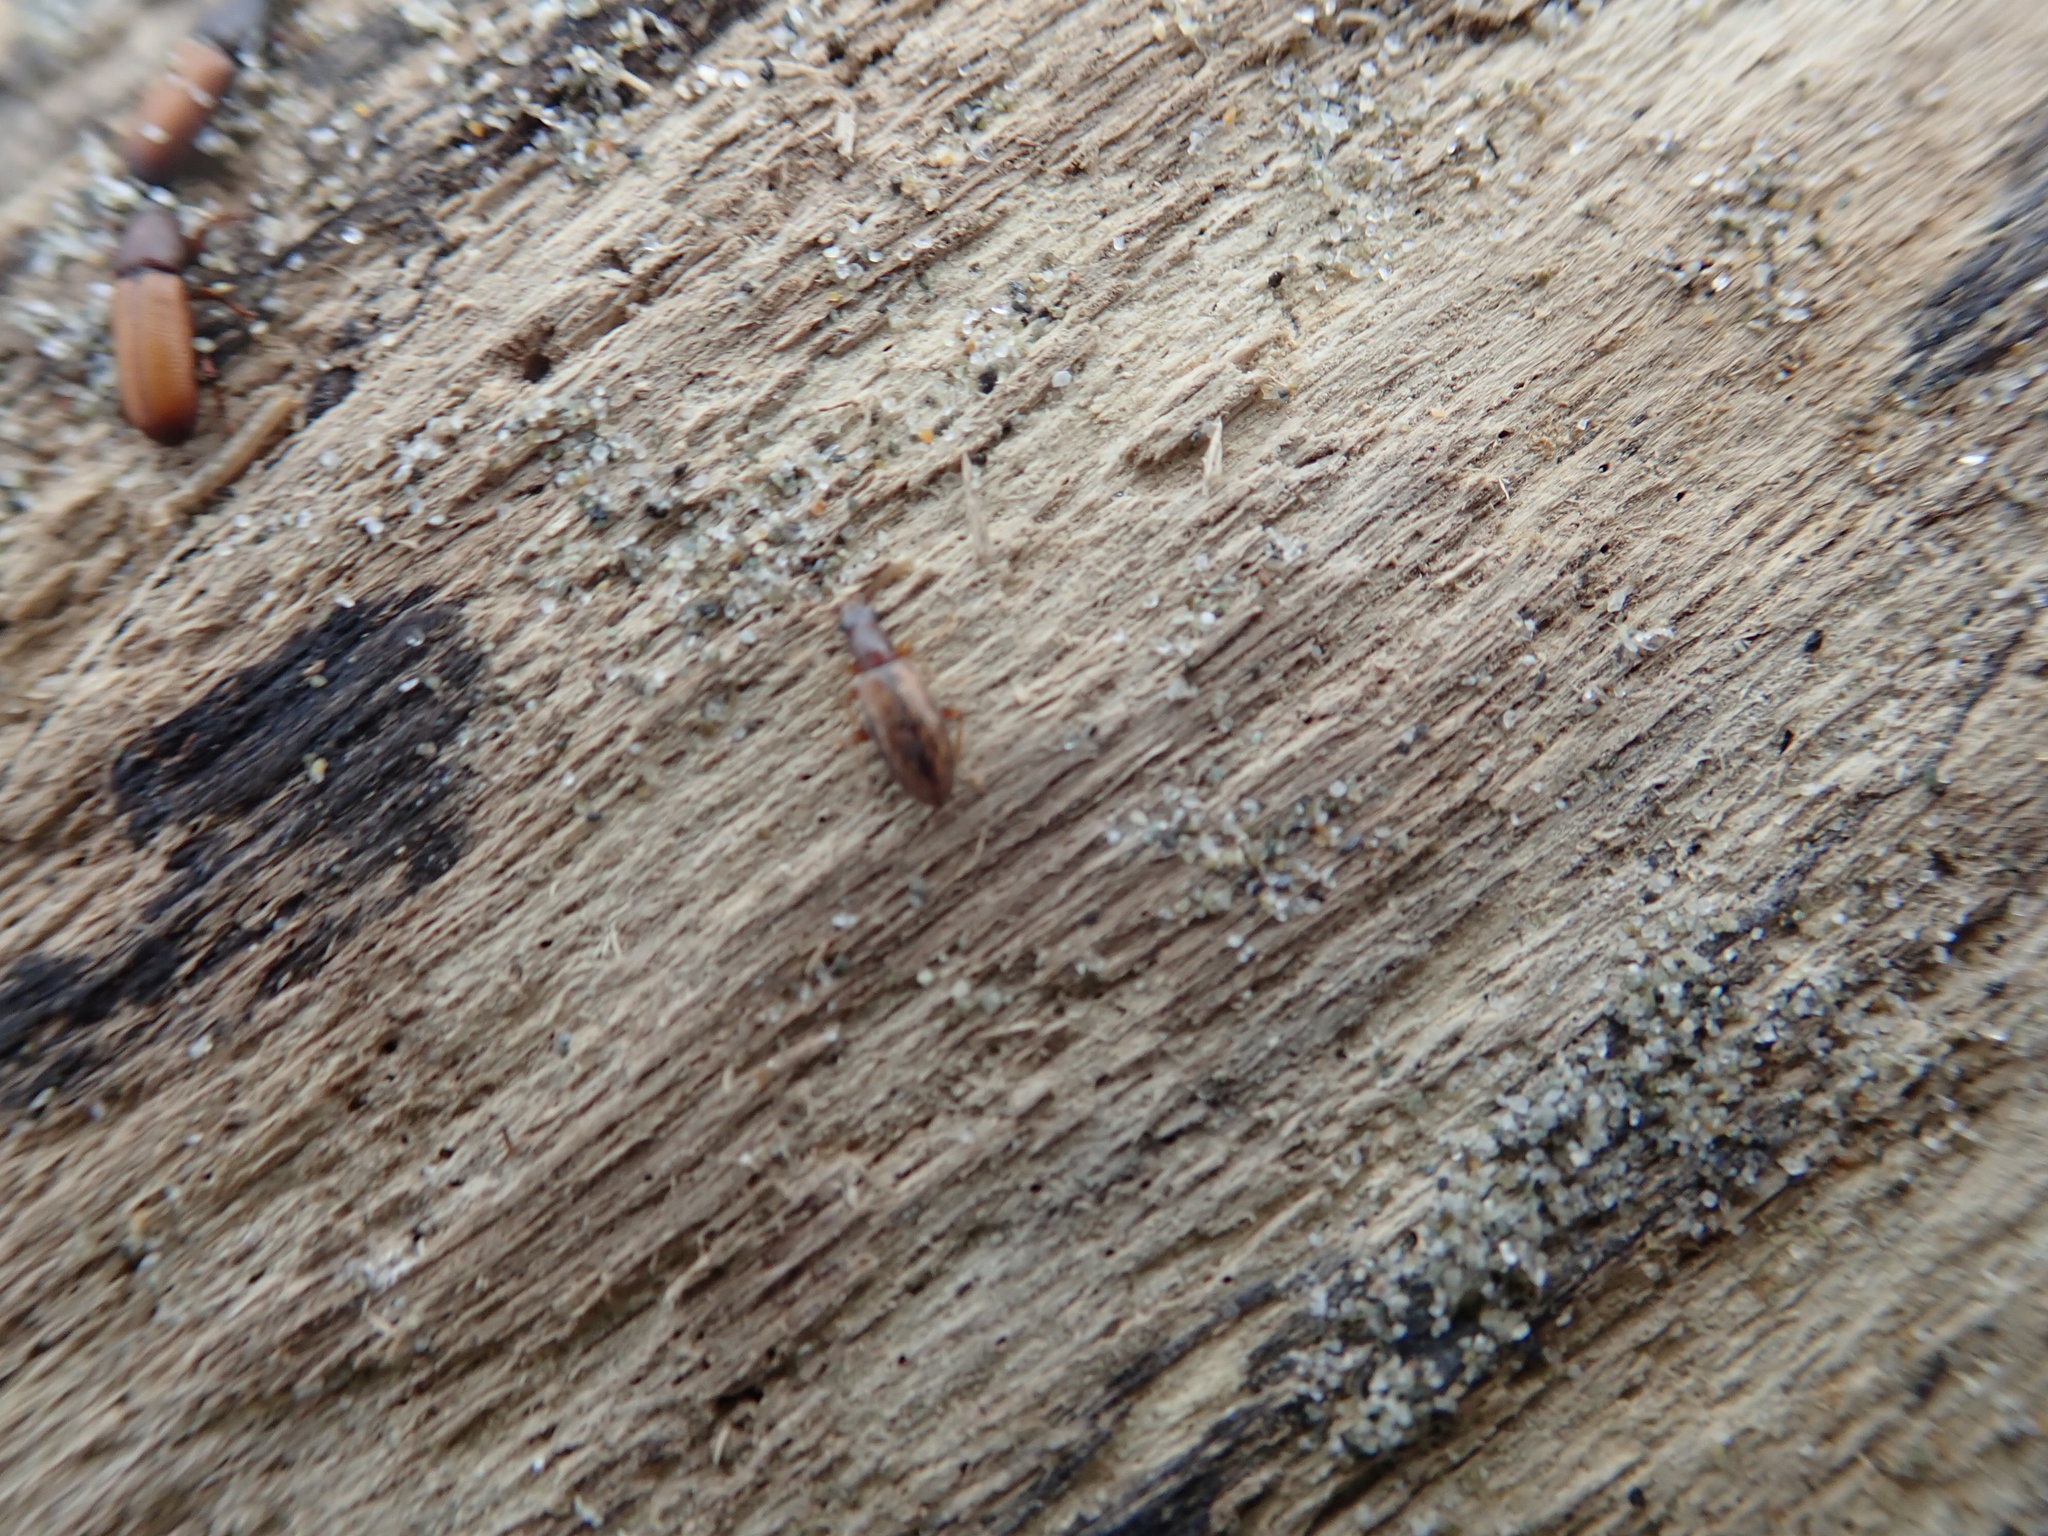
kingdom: Animalia
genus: Lagrioda
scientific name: Lagrioda brounii
